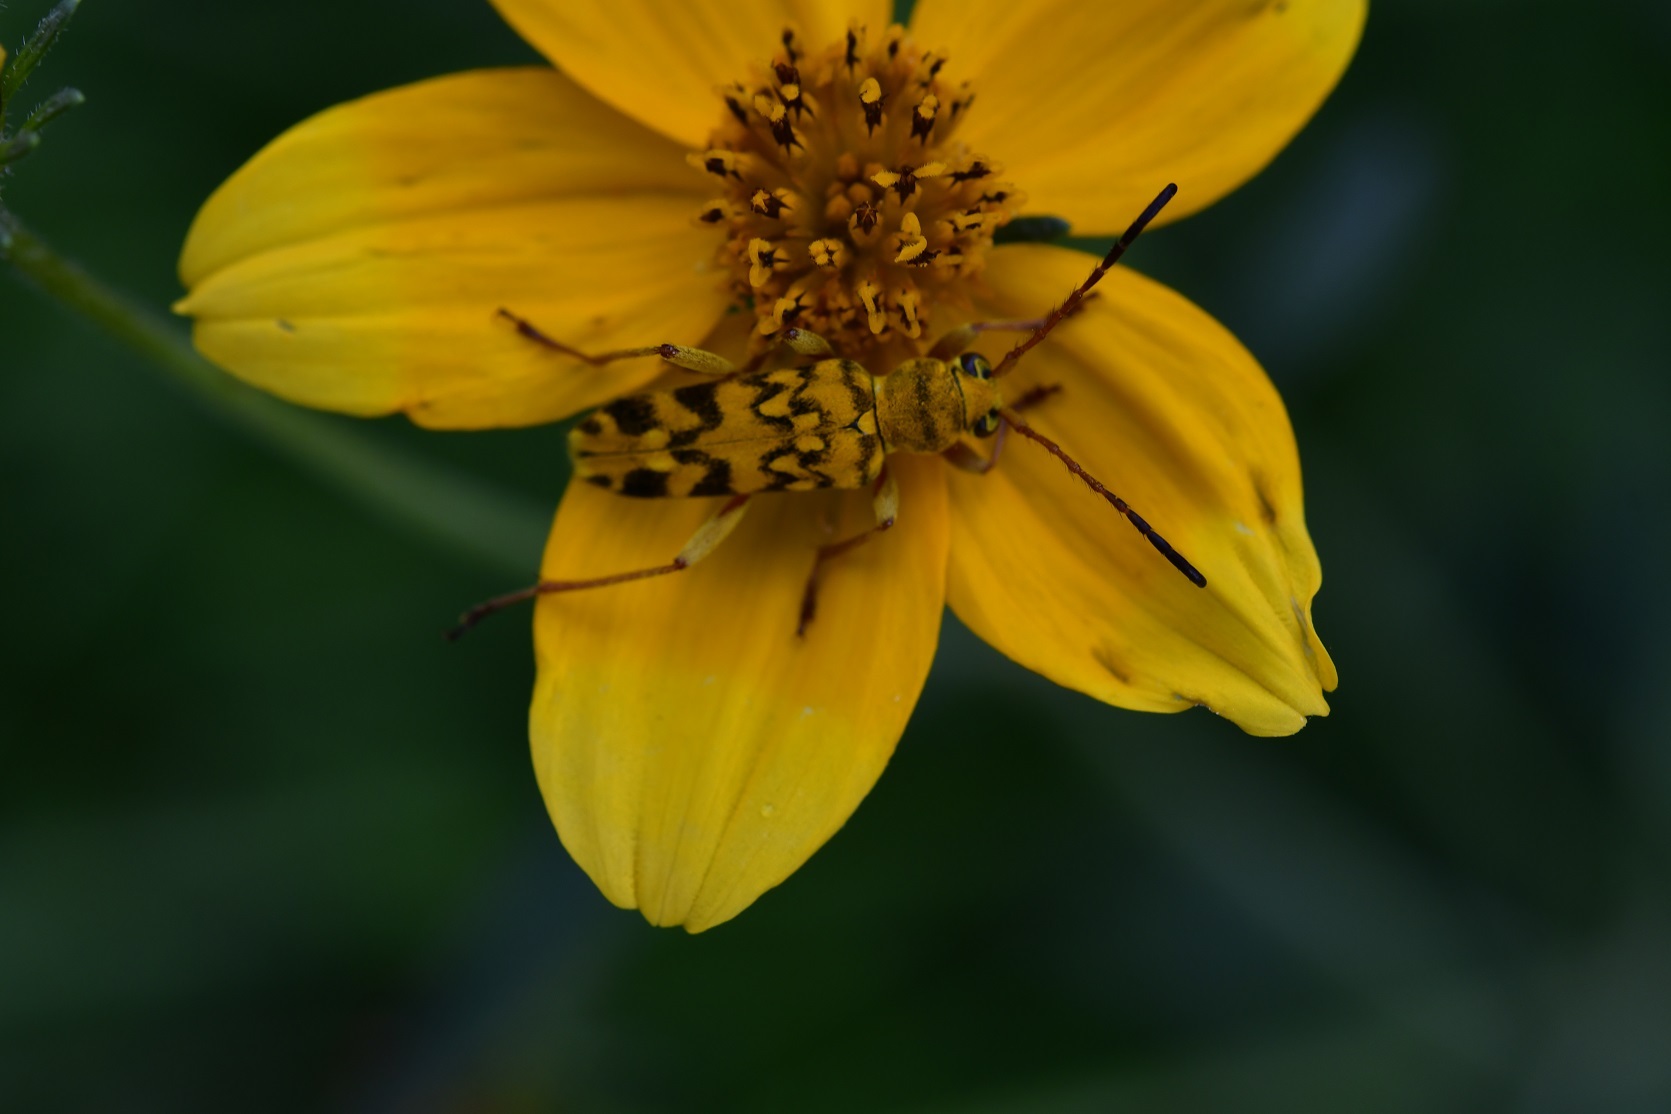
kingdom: Animalia
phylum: Arthropoda
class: Insecta
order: Coleoptera
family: Cerambycidae
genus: Ochraethes
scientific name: Ochraethes pollinosus
